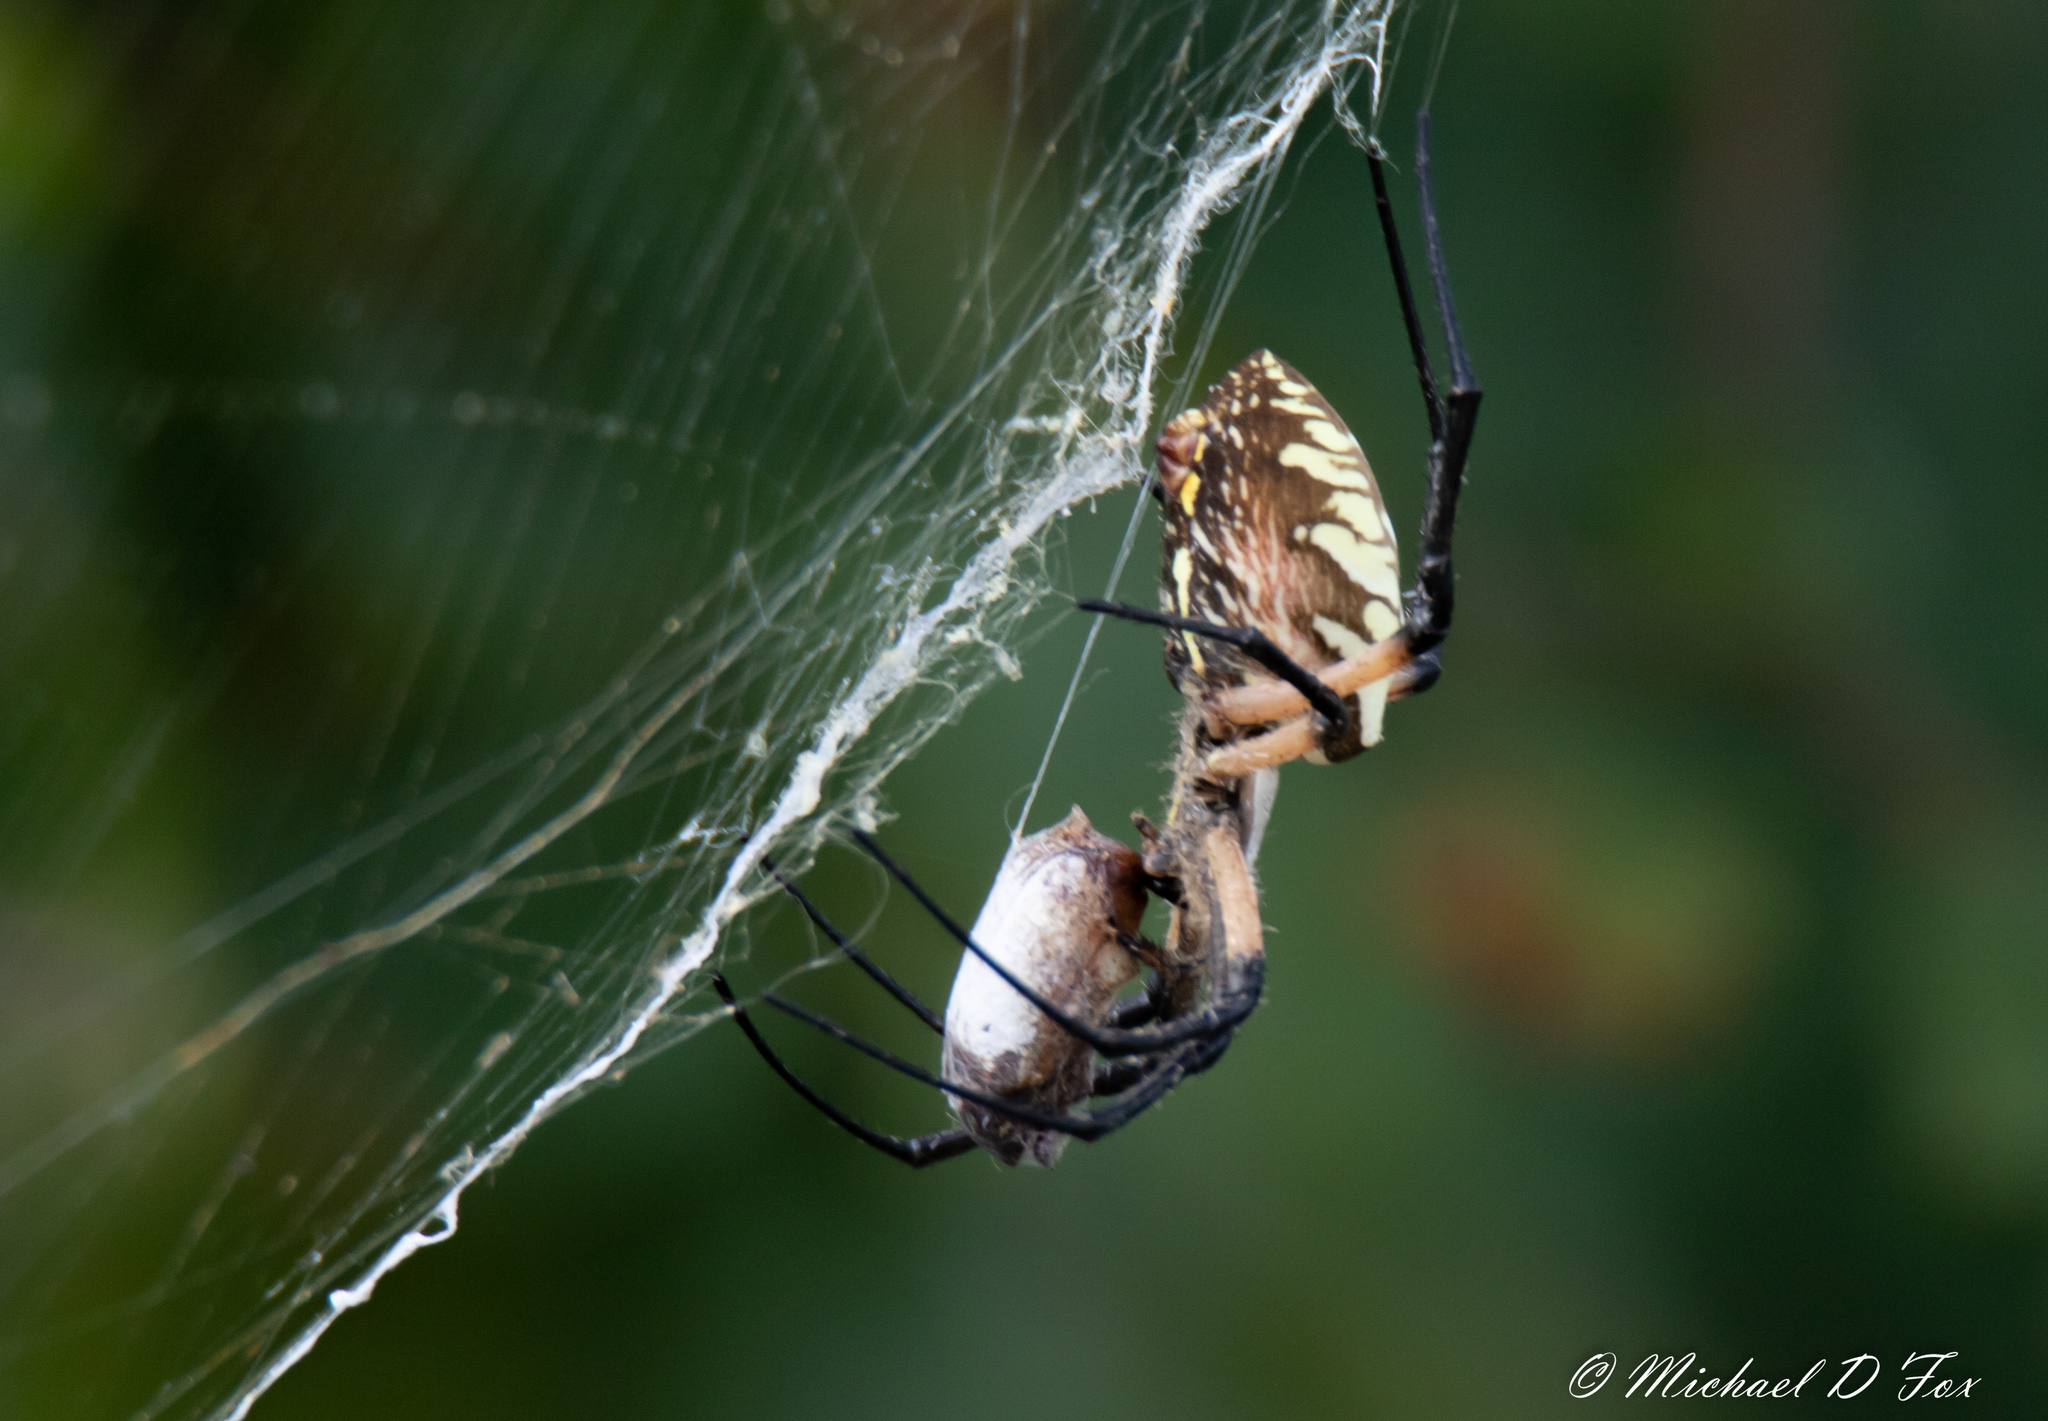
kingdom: Animalia
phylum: Arthropoda
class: Arachnida
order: Araneae
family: Araneidae
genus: Argiope
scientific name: Argiope aurantia
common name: Orb weavers
